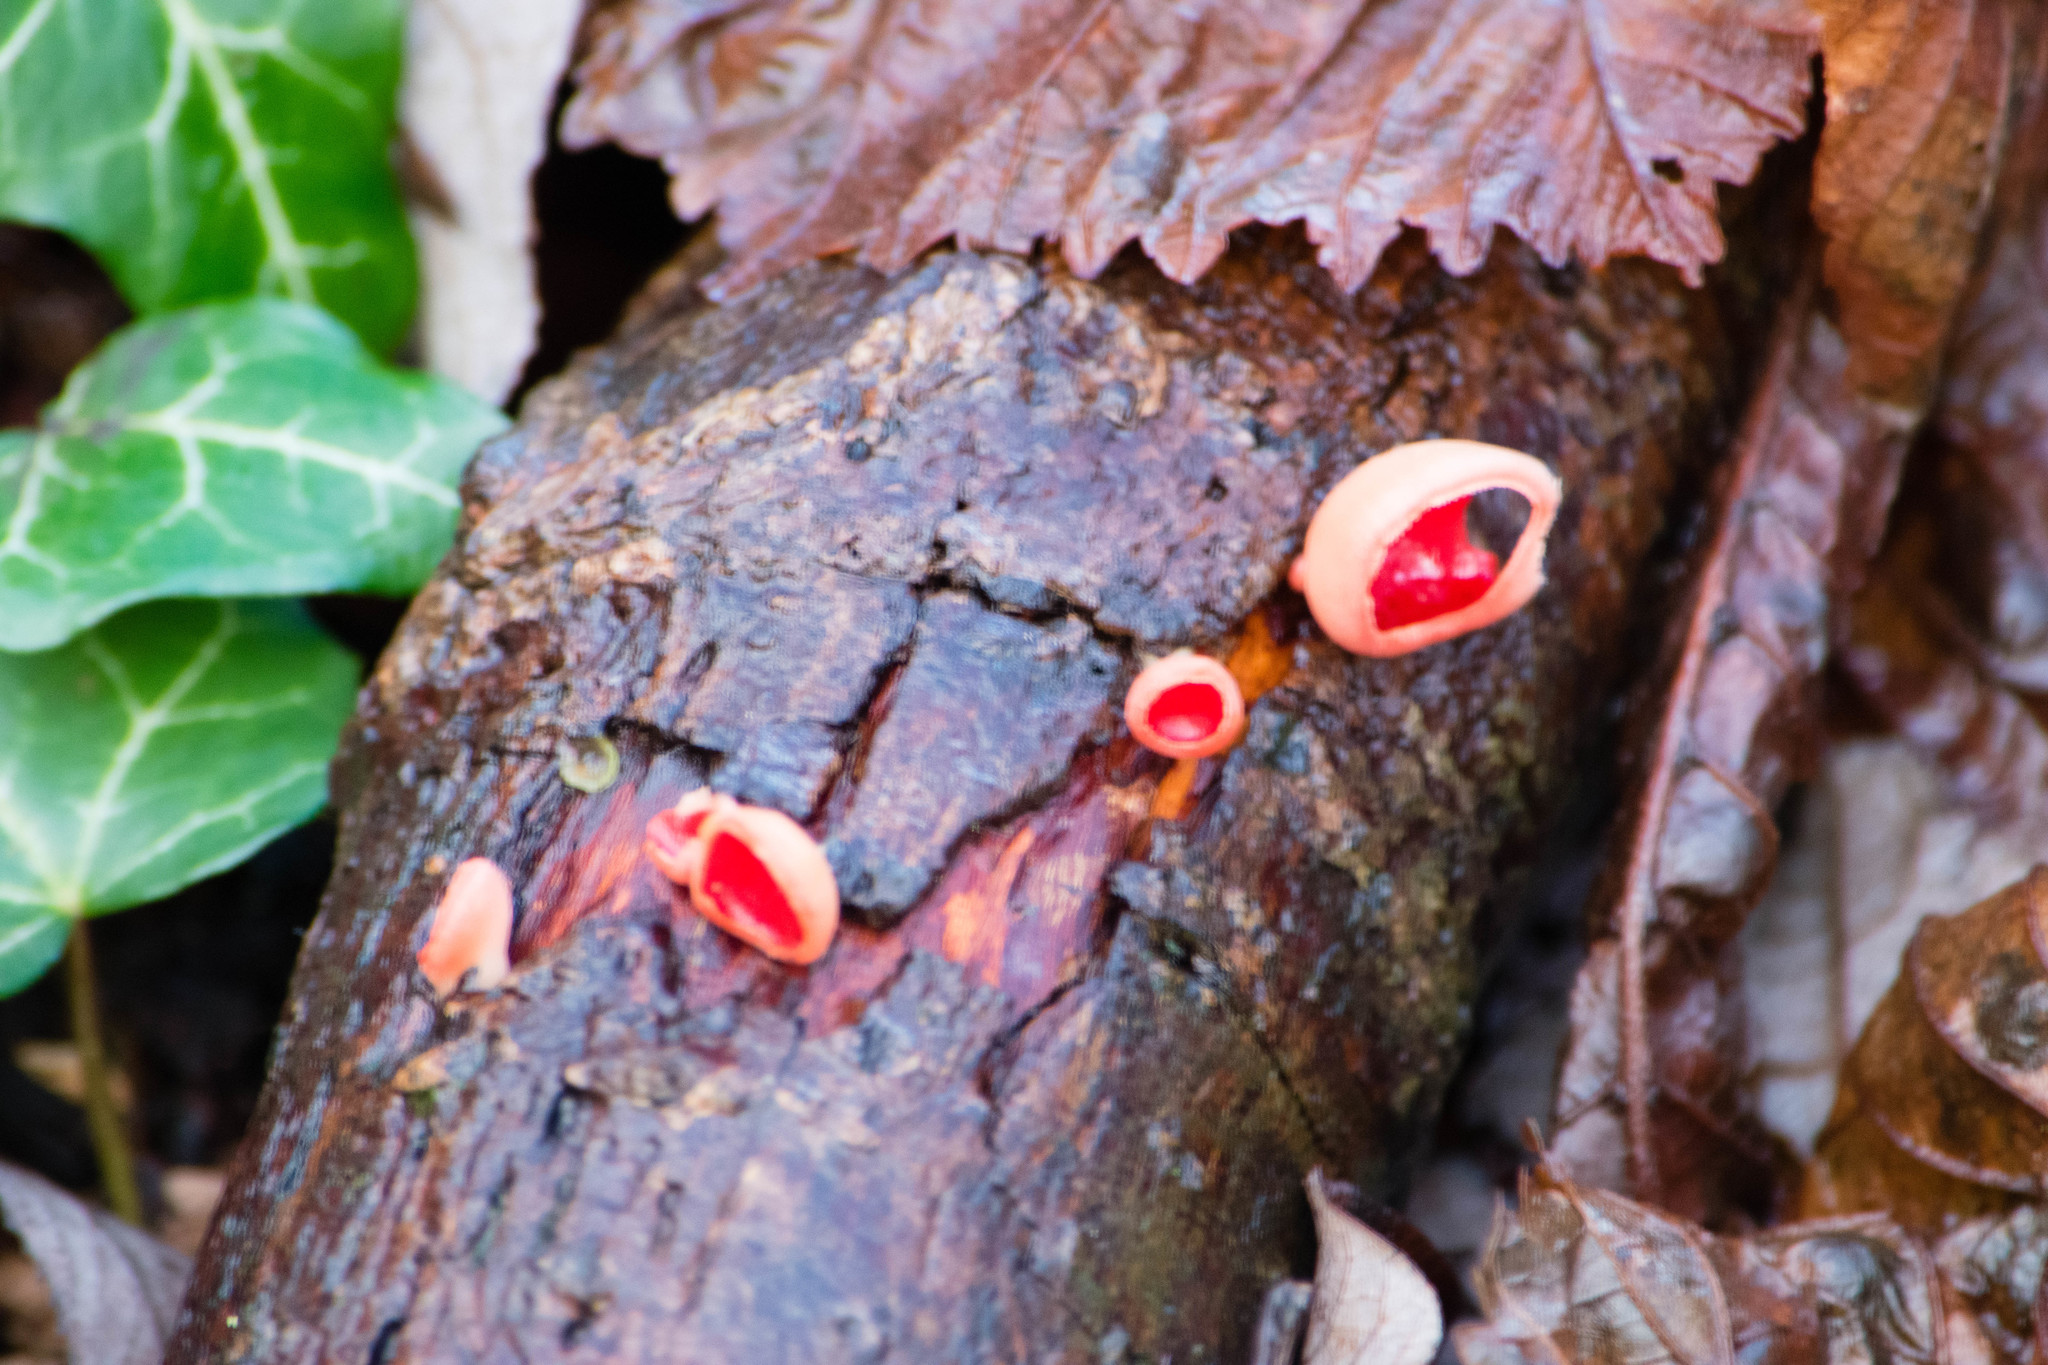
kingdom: Fungi
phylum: Ascomycota
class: Pezizomycetes
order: Pezizales
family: Sarcoscyphaceae
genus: Sarcoscypha
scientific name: Sarcoscypha
